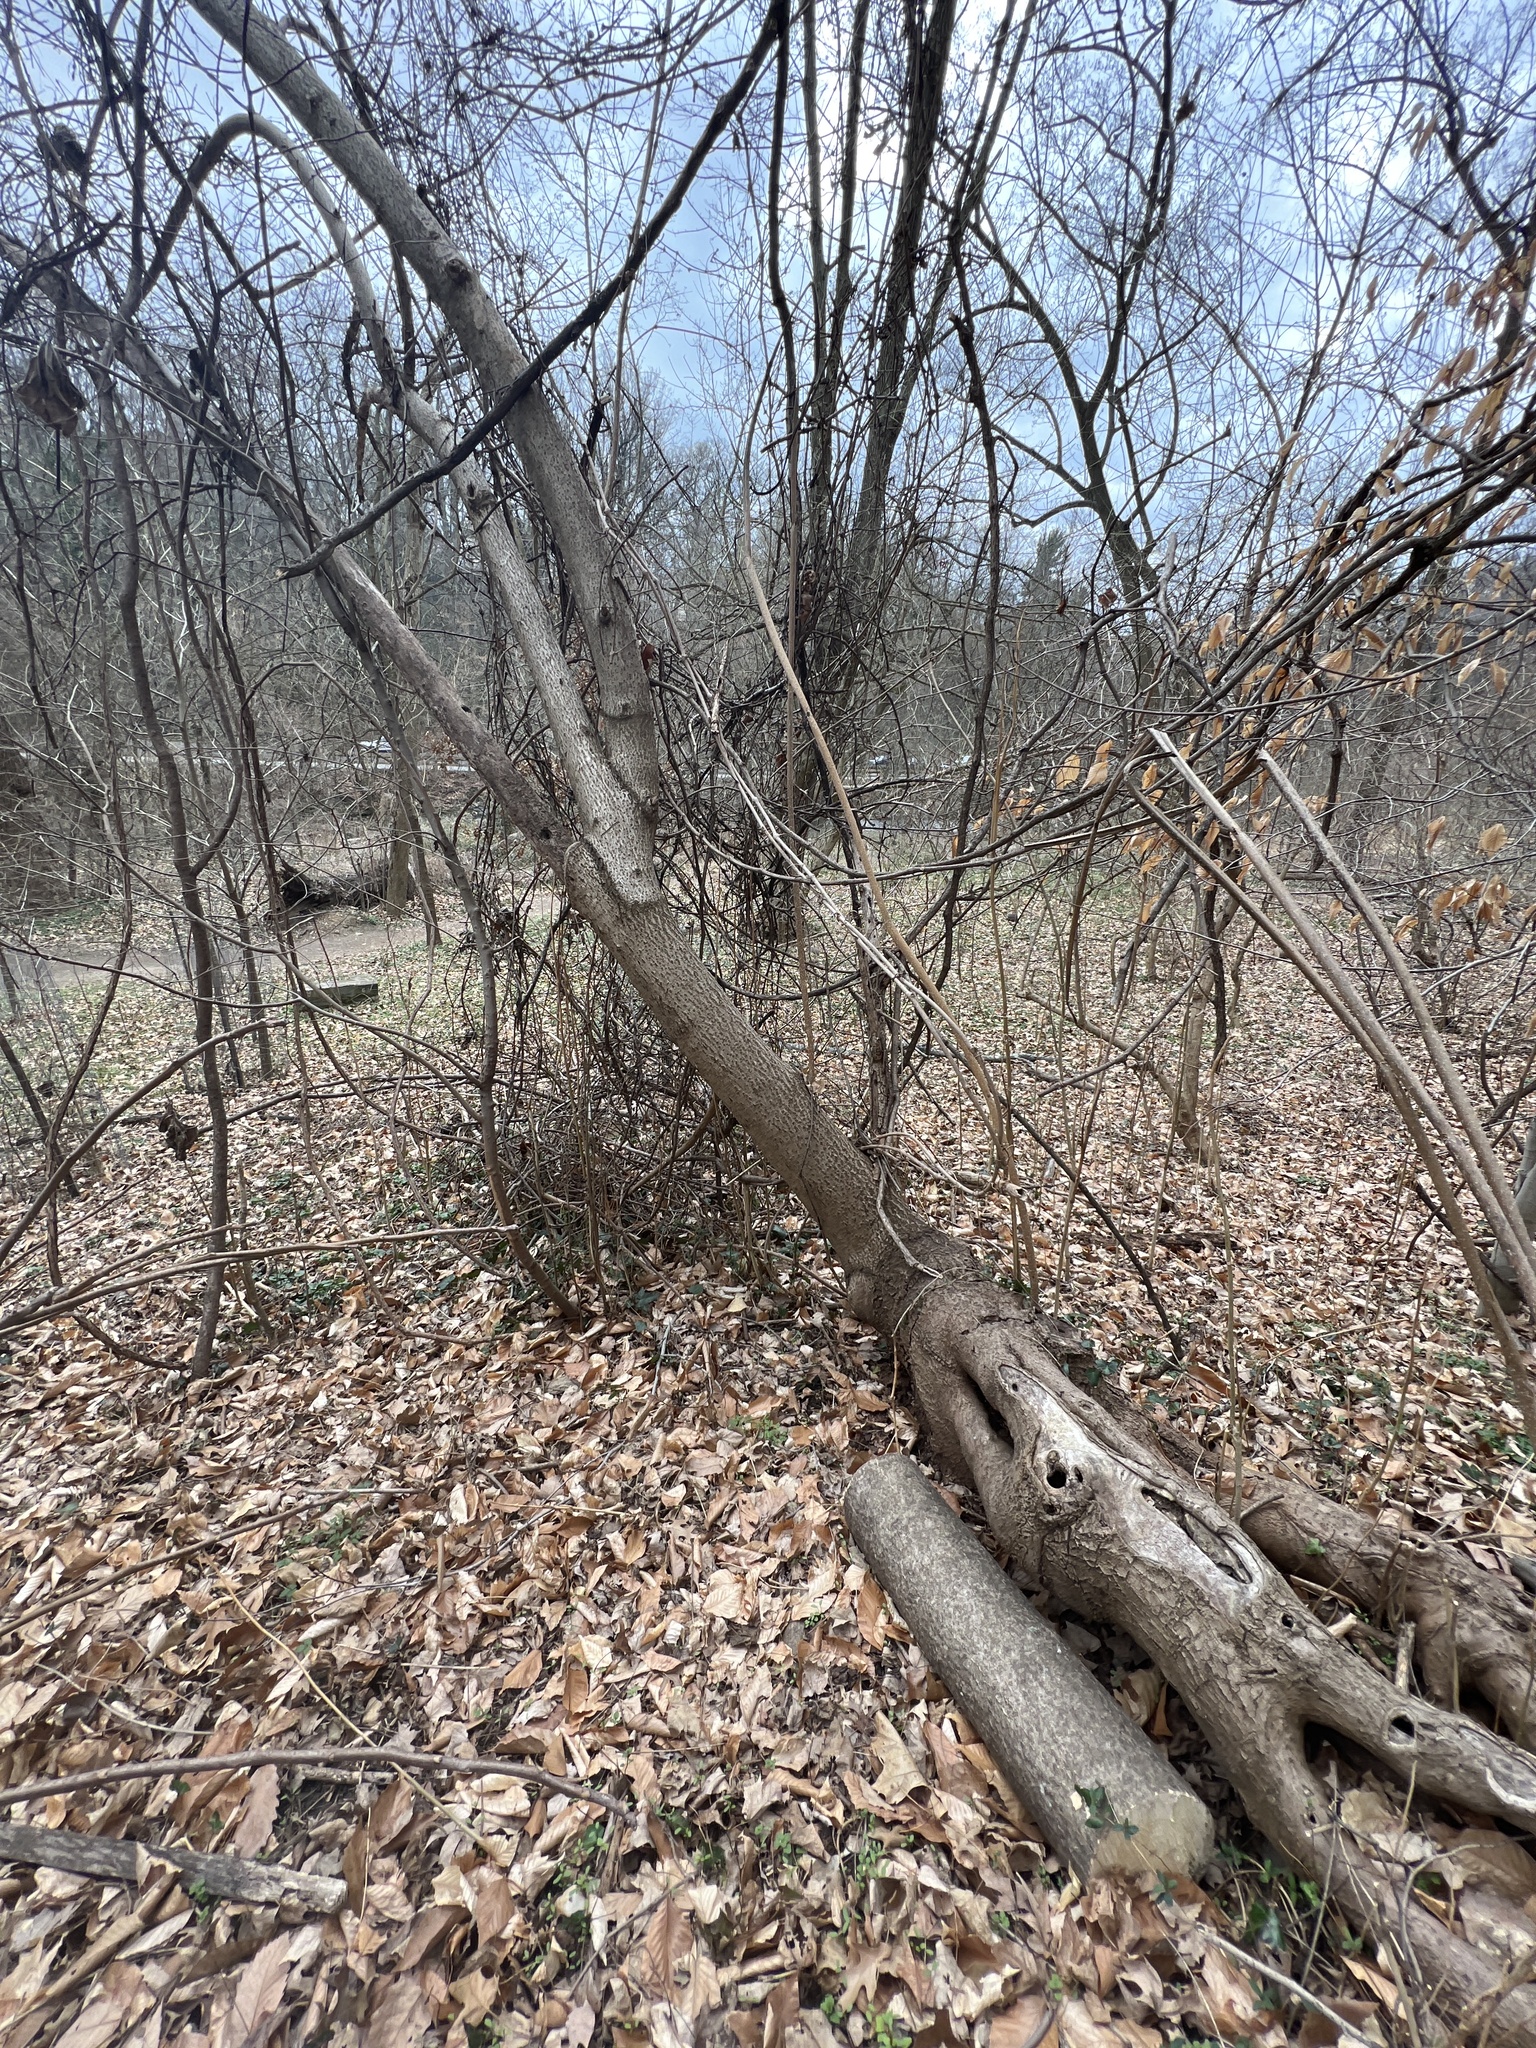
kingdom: Plantae
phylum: Tracheophyta
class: Magnoliopsida
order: Sapindales
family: Simaroubaceae
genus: Ailanthus
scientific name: Ailanthus altissima
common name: Tree-of-heaven
